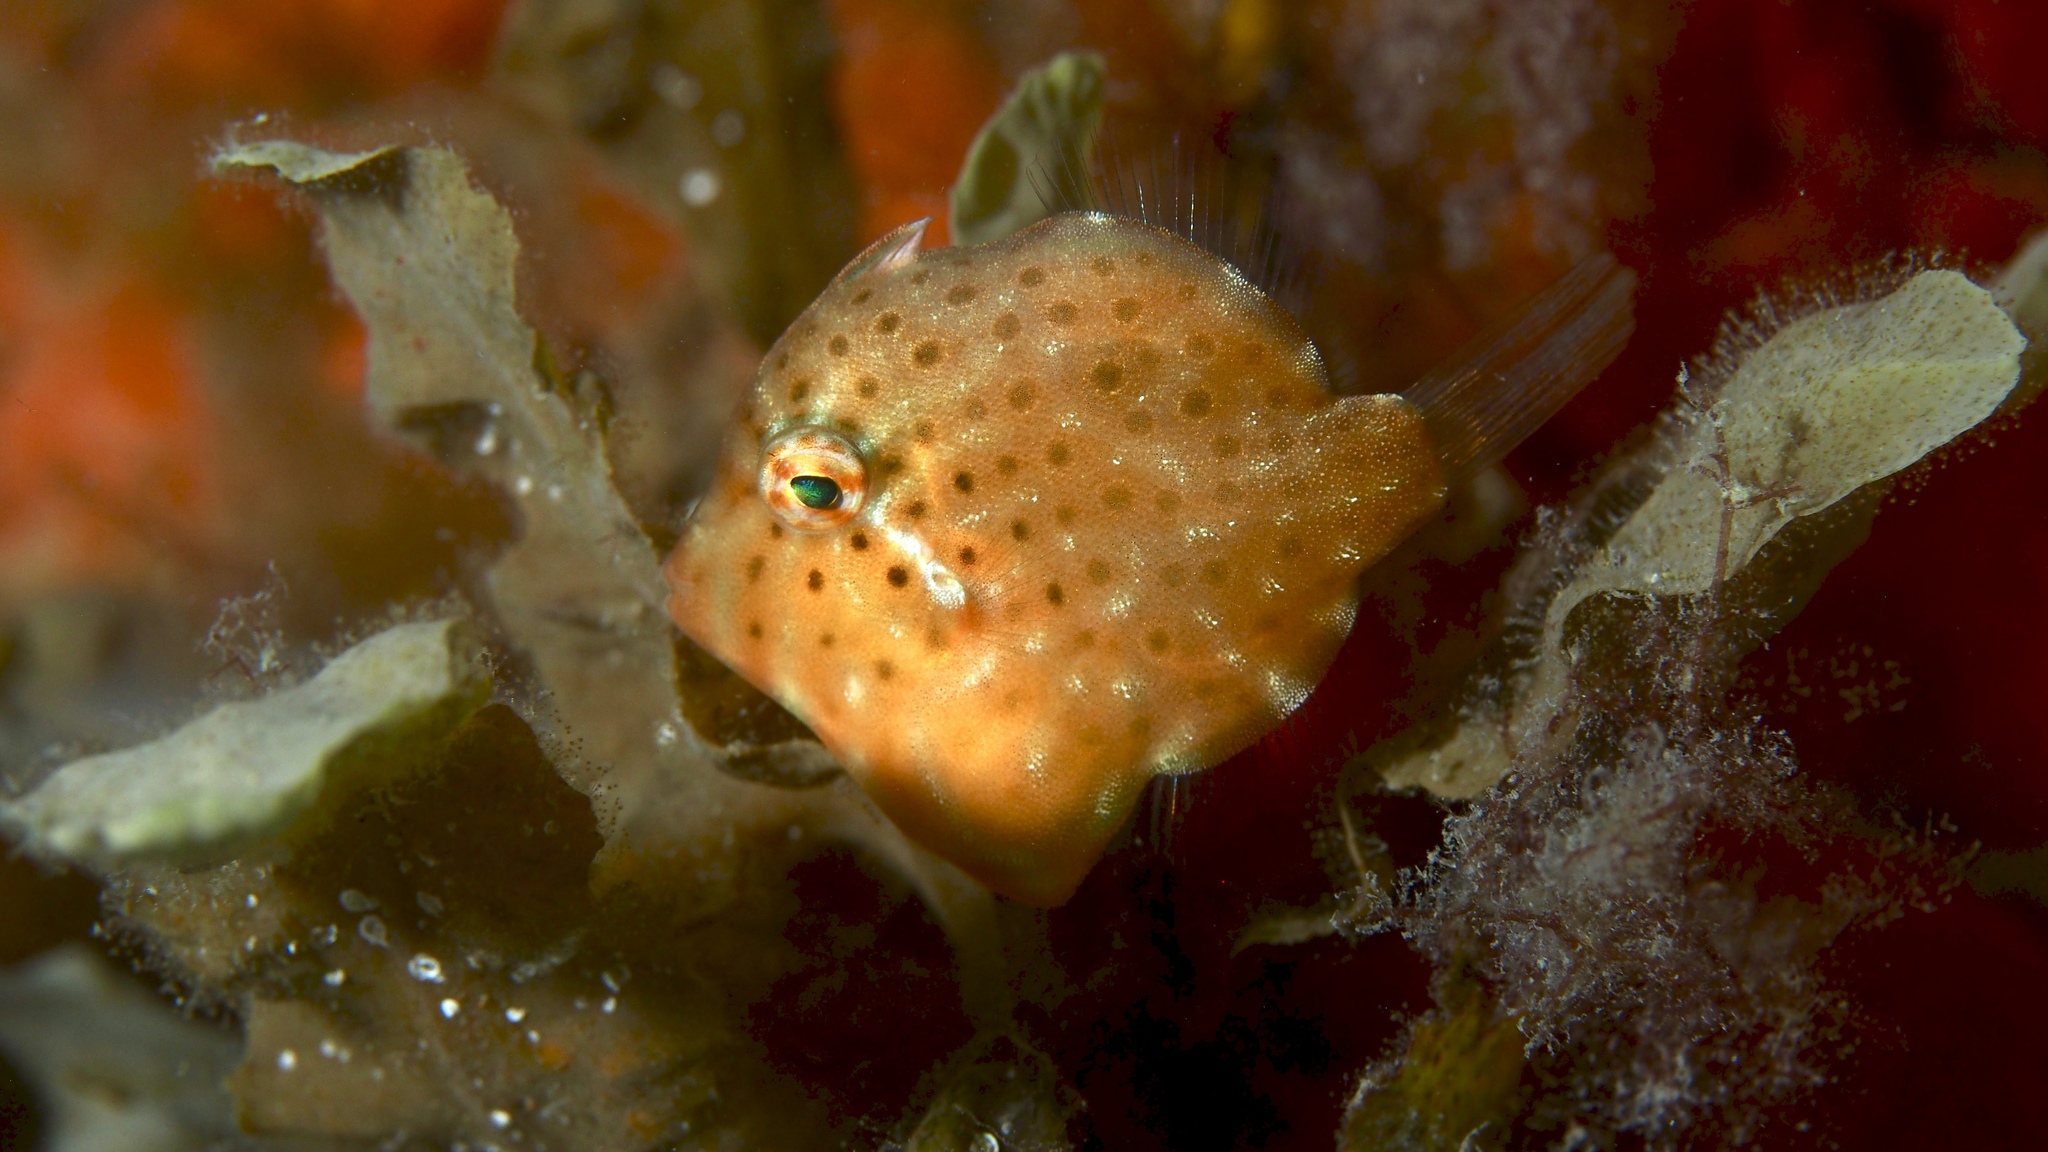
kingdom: Animalia
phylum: Chordata
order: Tetraodontiformes
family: Monacanthidae
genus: Brachaluteres
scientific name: Brachaluteres jacksonianus
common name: Pigmy leatherjacket
